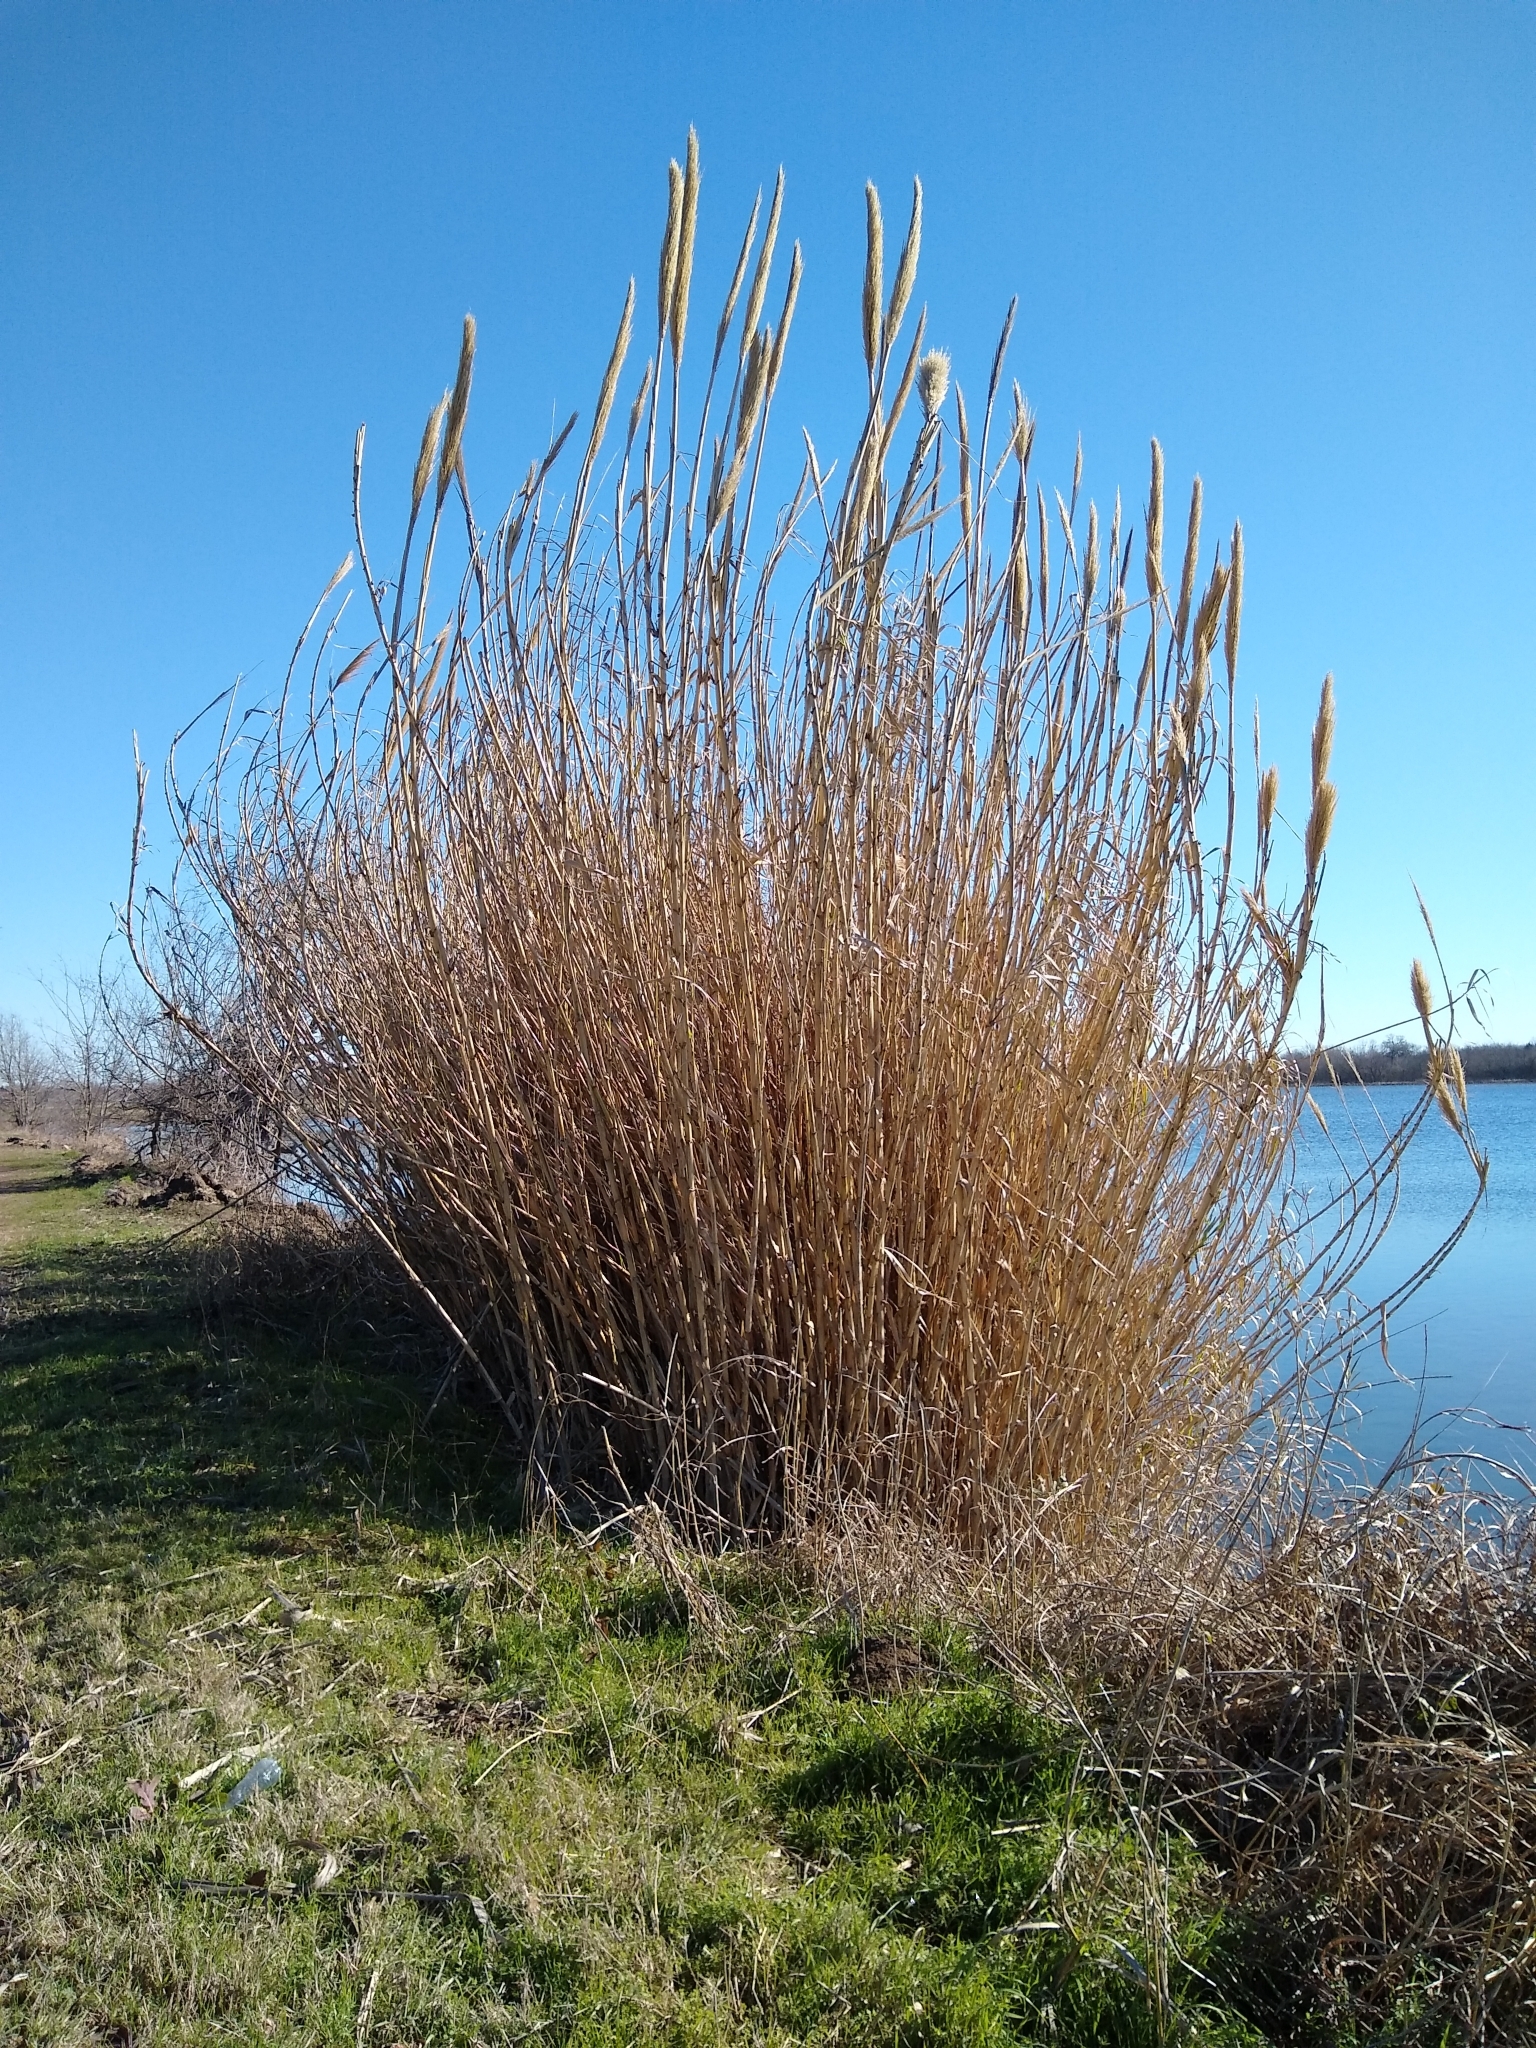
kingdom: Plantae
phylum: Tracheophyta
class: Liliopsida
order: Poales
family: Poaceae
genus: Arundo
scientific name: Arundo donax
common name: Giant reed
